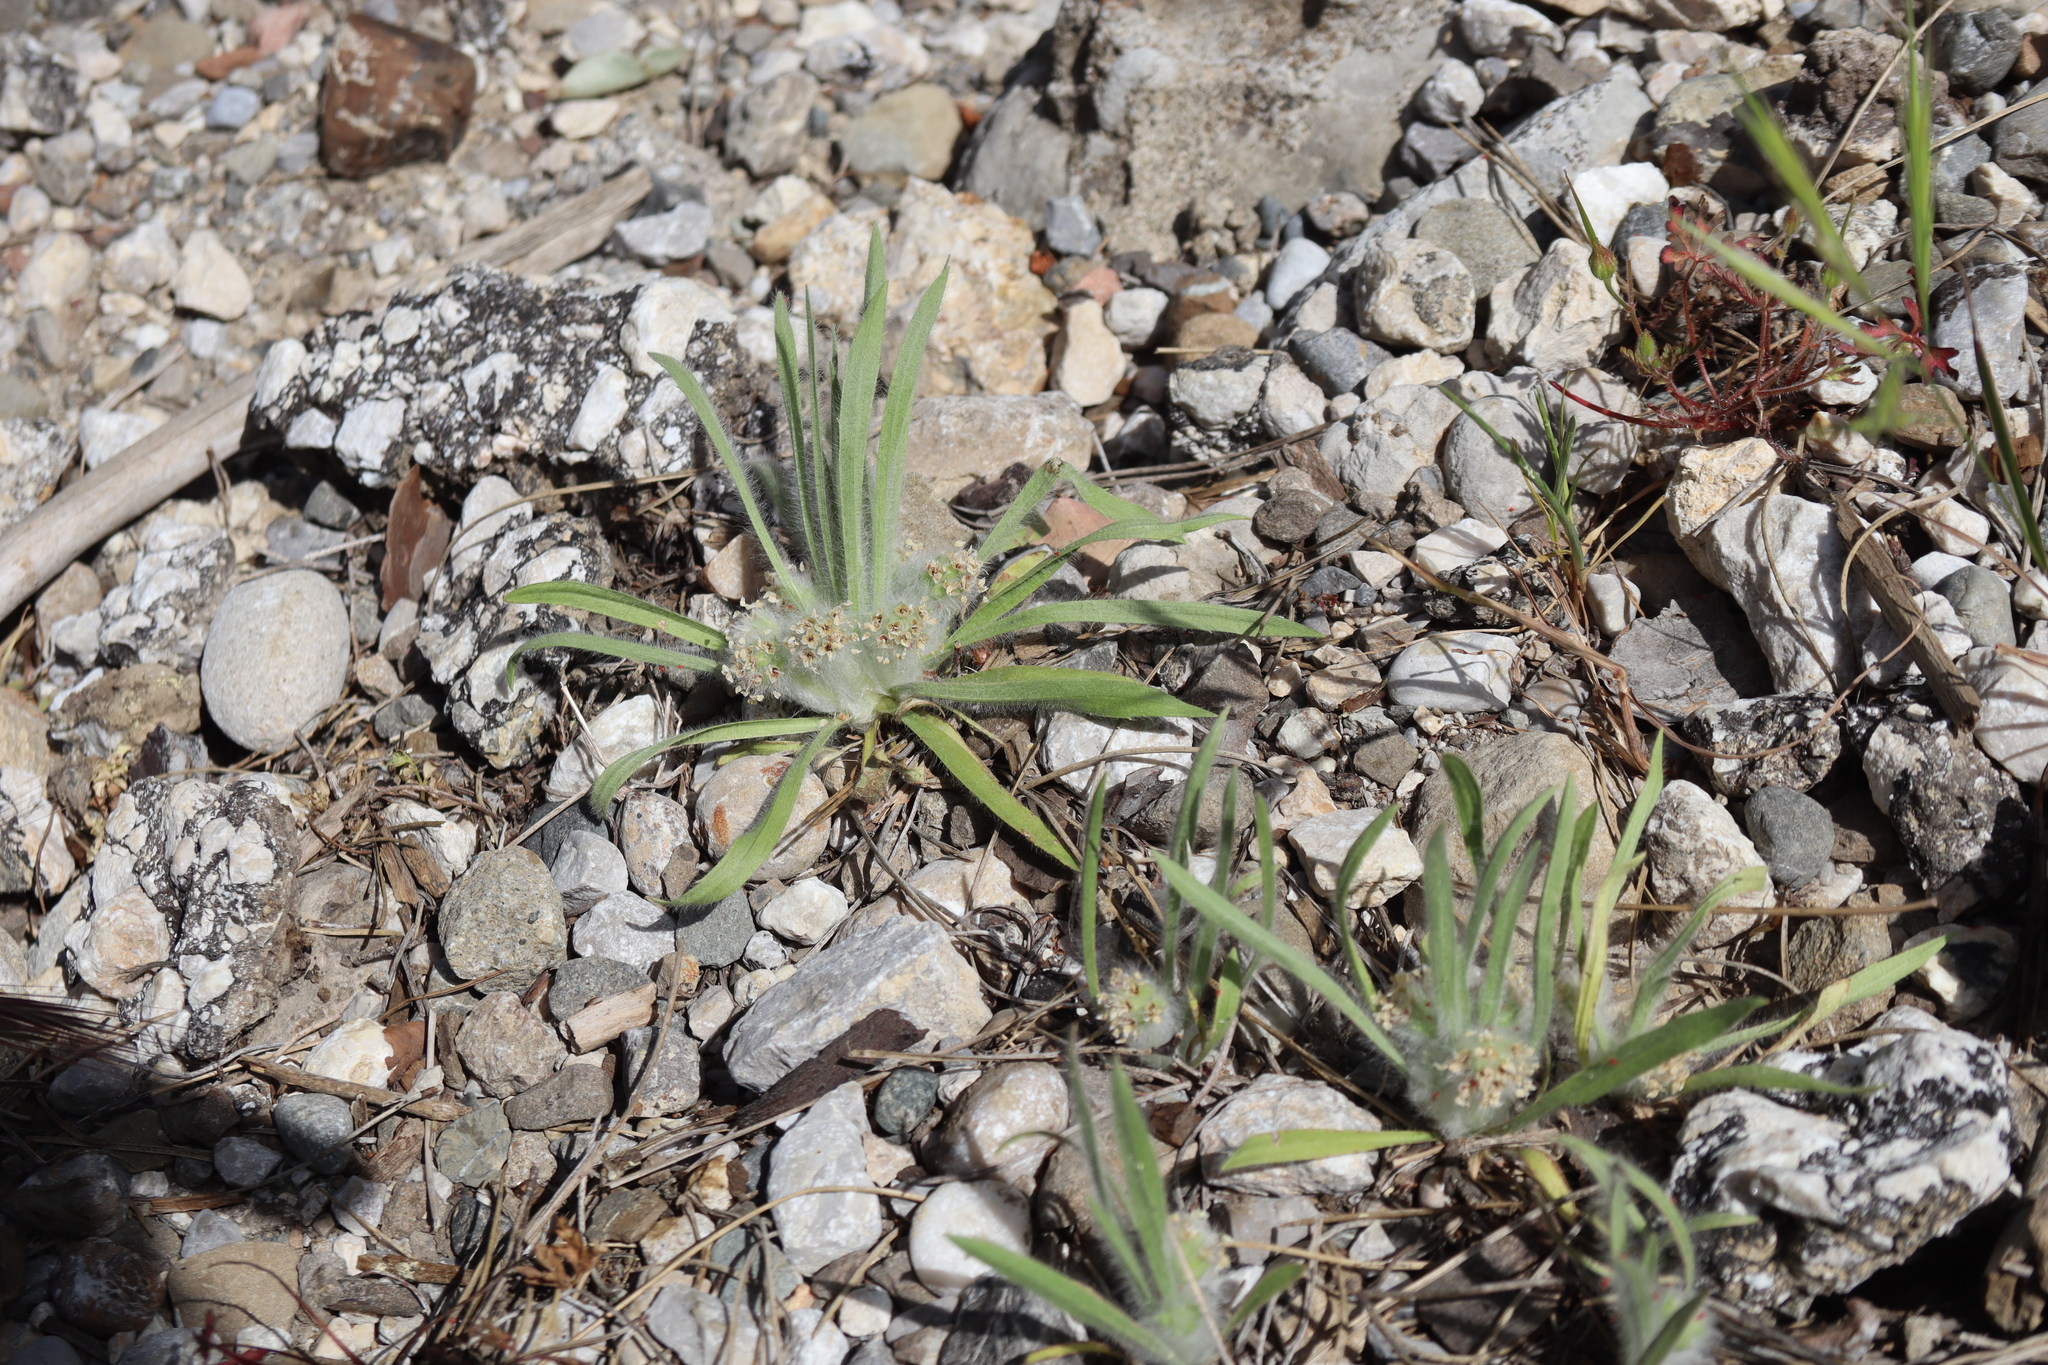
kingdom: Plantae
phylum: Tracheophyta
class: Magnoliopsida
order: Lamiales
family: Plantaginaceae
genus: Plantago
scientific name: Plantago cretica
